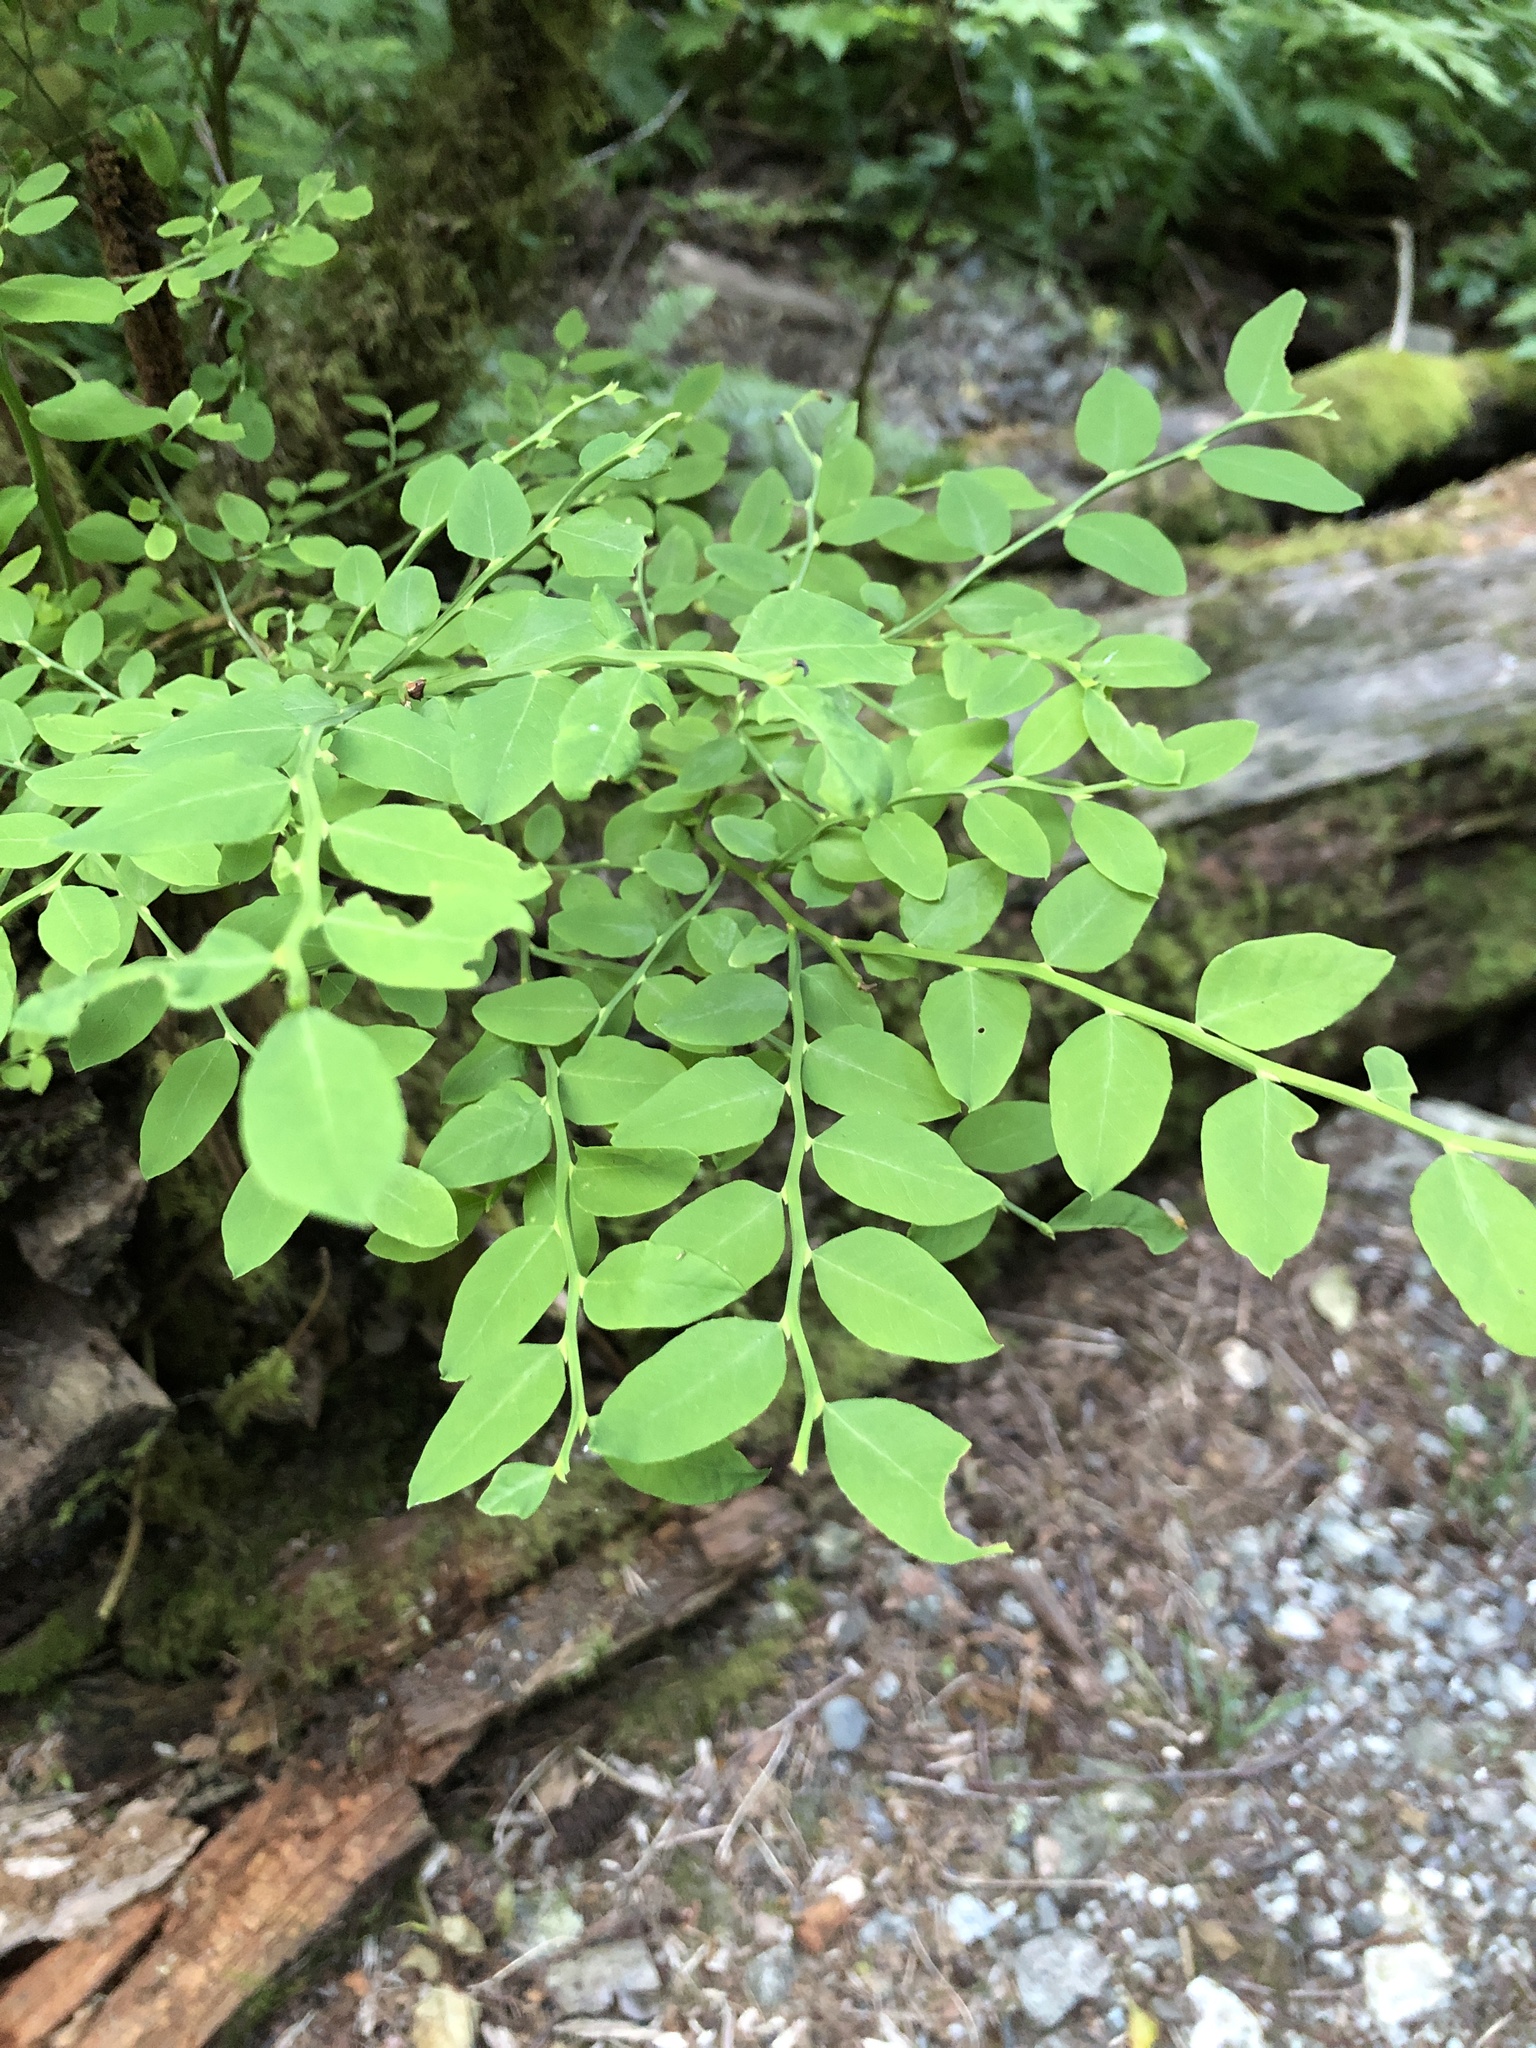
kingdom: Plantae
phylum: Tracheophyta
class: Magnoliopsida
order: Ericales
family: Ericaceae
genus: Vaccinium
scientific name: Vaccinium parvifolium
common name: Red-huckleberry
